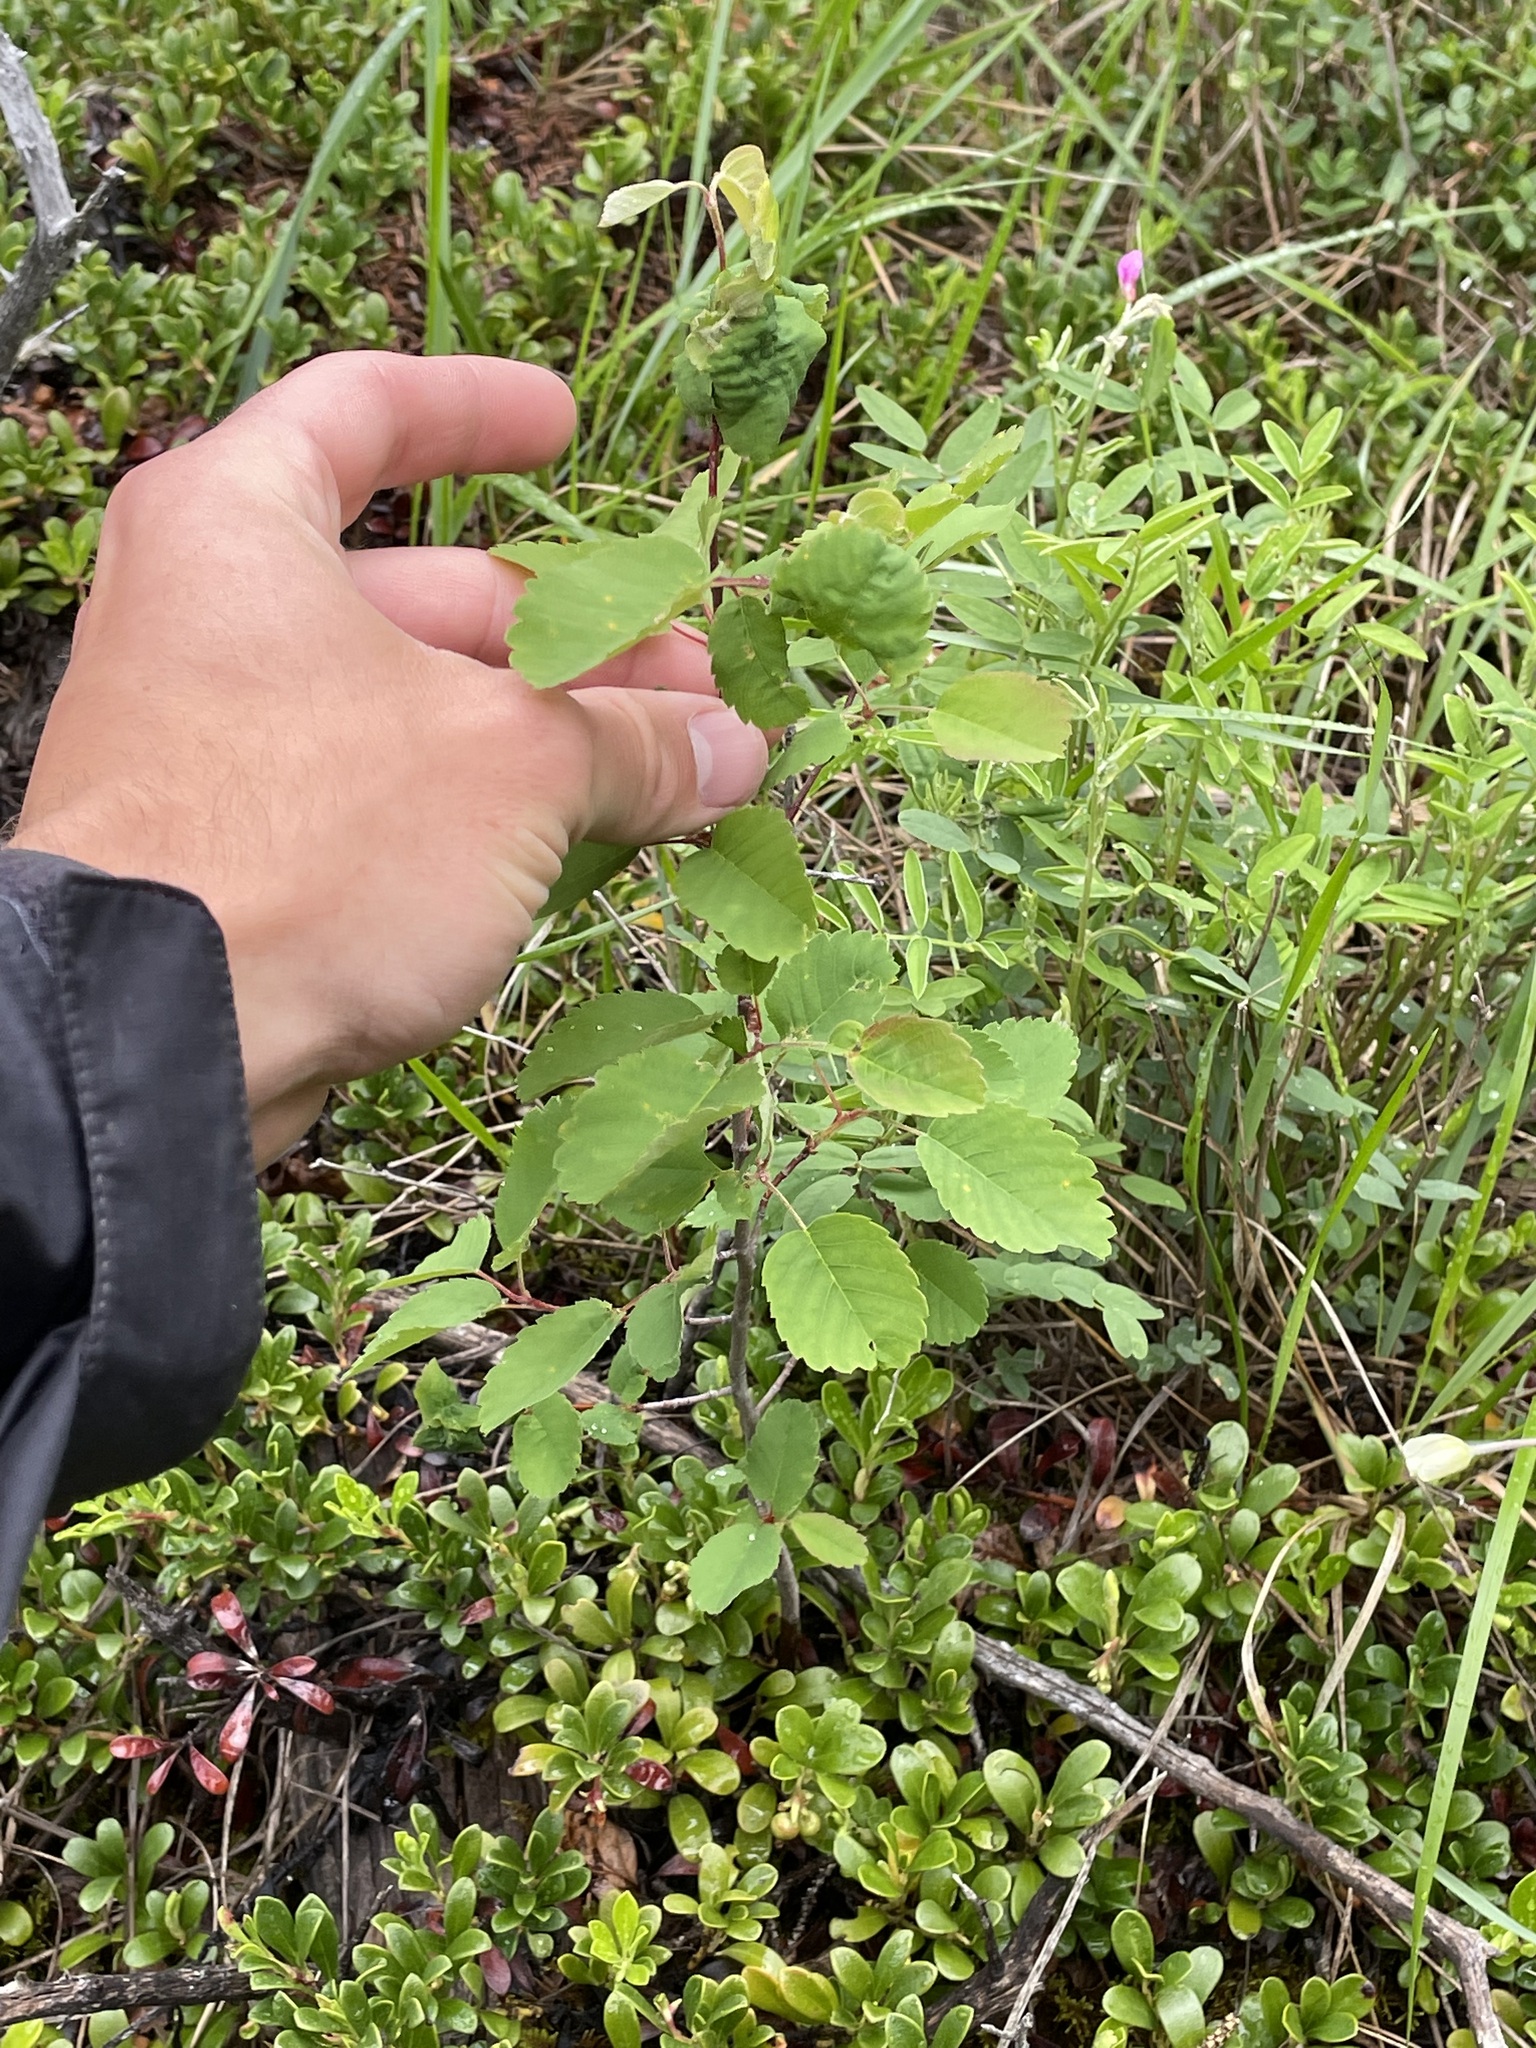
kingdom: Plantae
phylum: Tracheophyta
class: Magnoliopsida
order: Rosales
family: Rosaceae
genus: Spiraea
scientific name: Spiraea lucida
